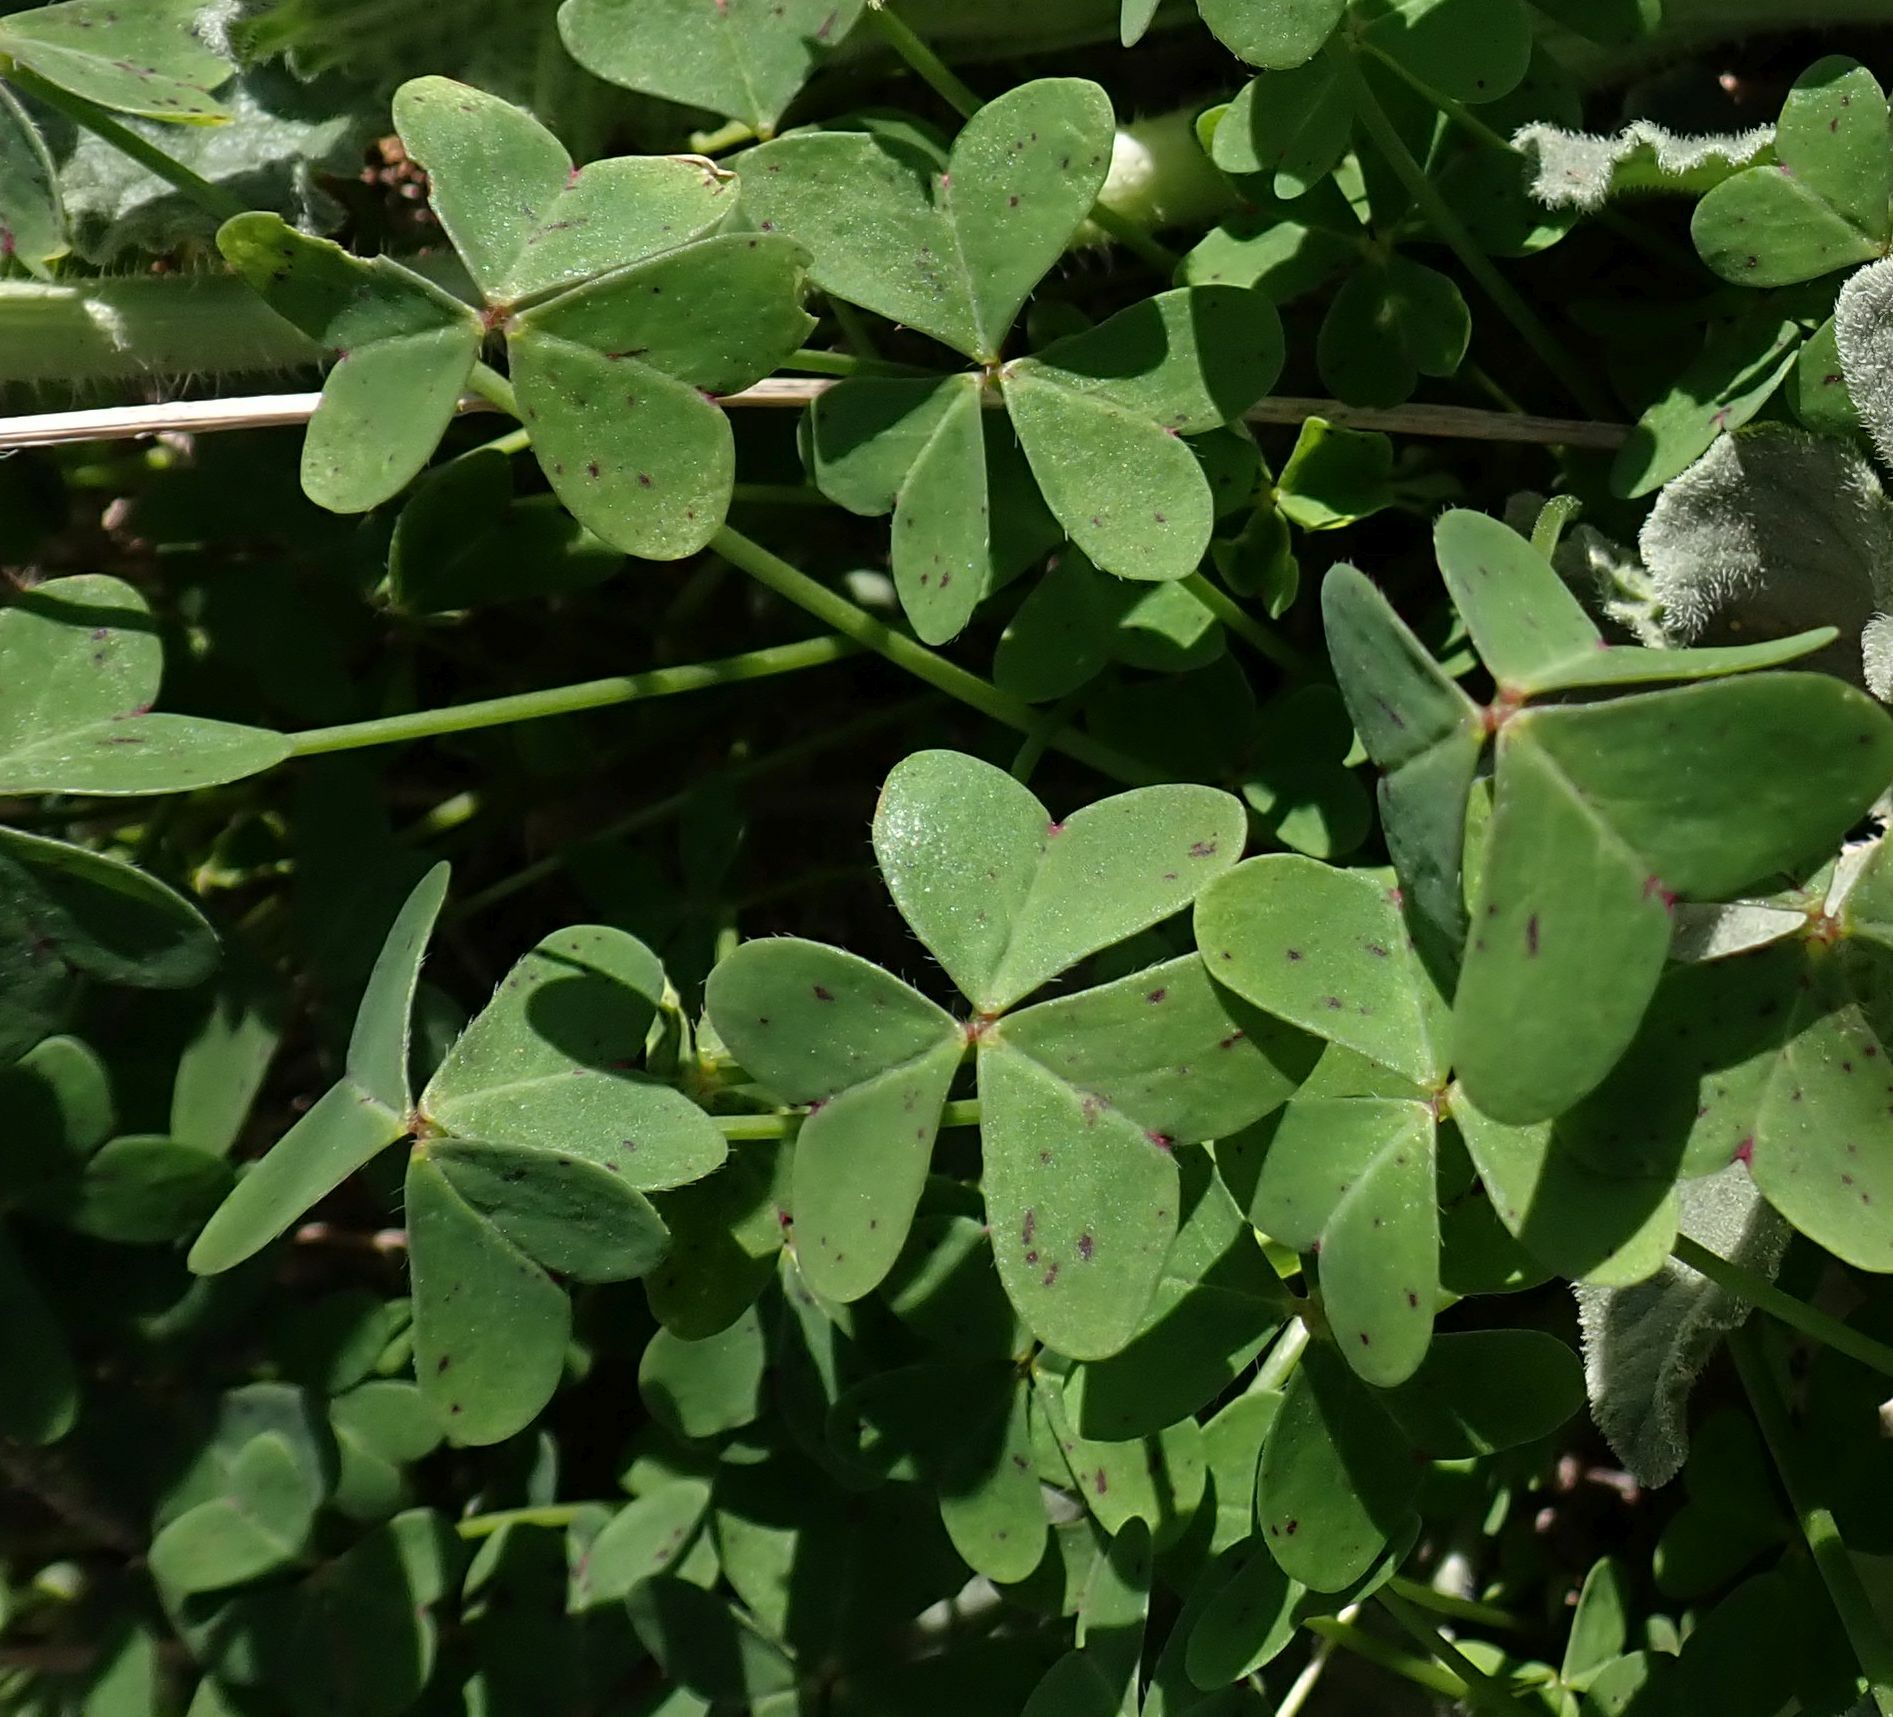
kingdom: Plantae
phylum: Tracheophyta
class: Magnoliopsida
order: Oxalidales
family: Oxalidaceae
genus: Oxalis
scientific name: Oxalis pes-caprae
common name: Bermuda-buttercup
